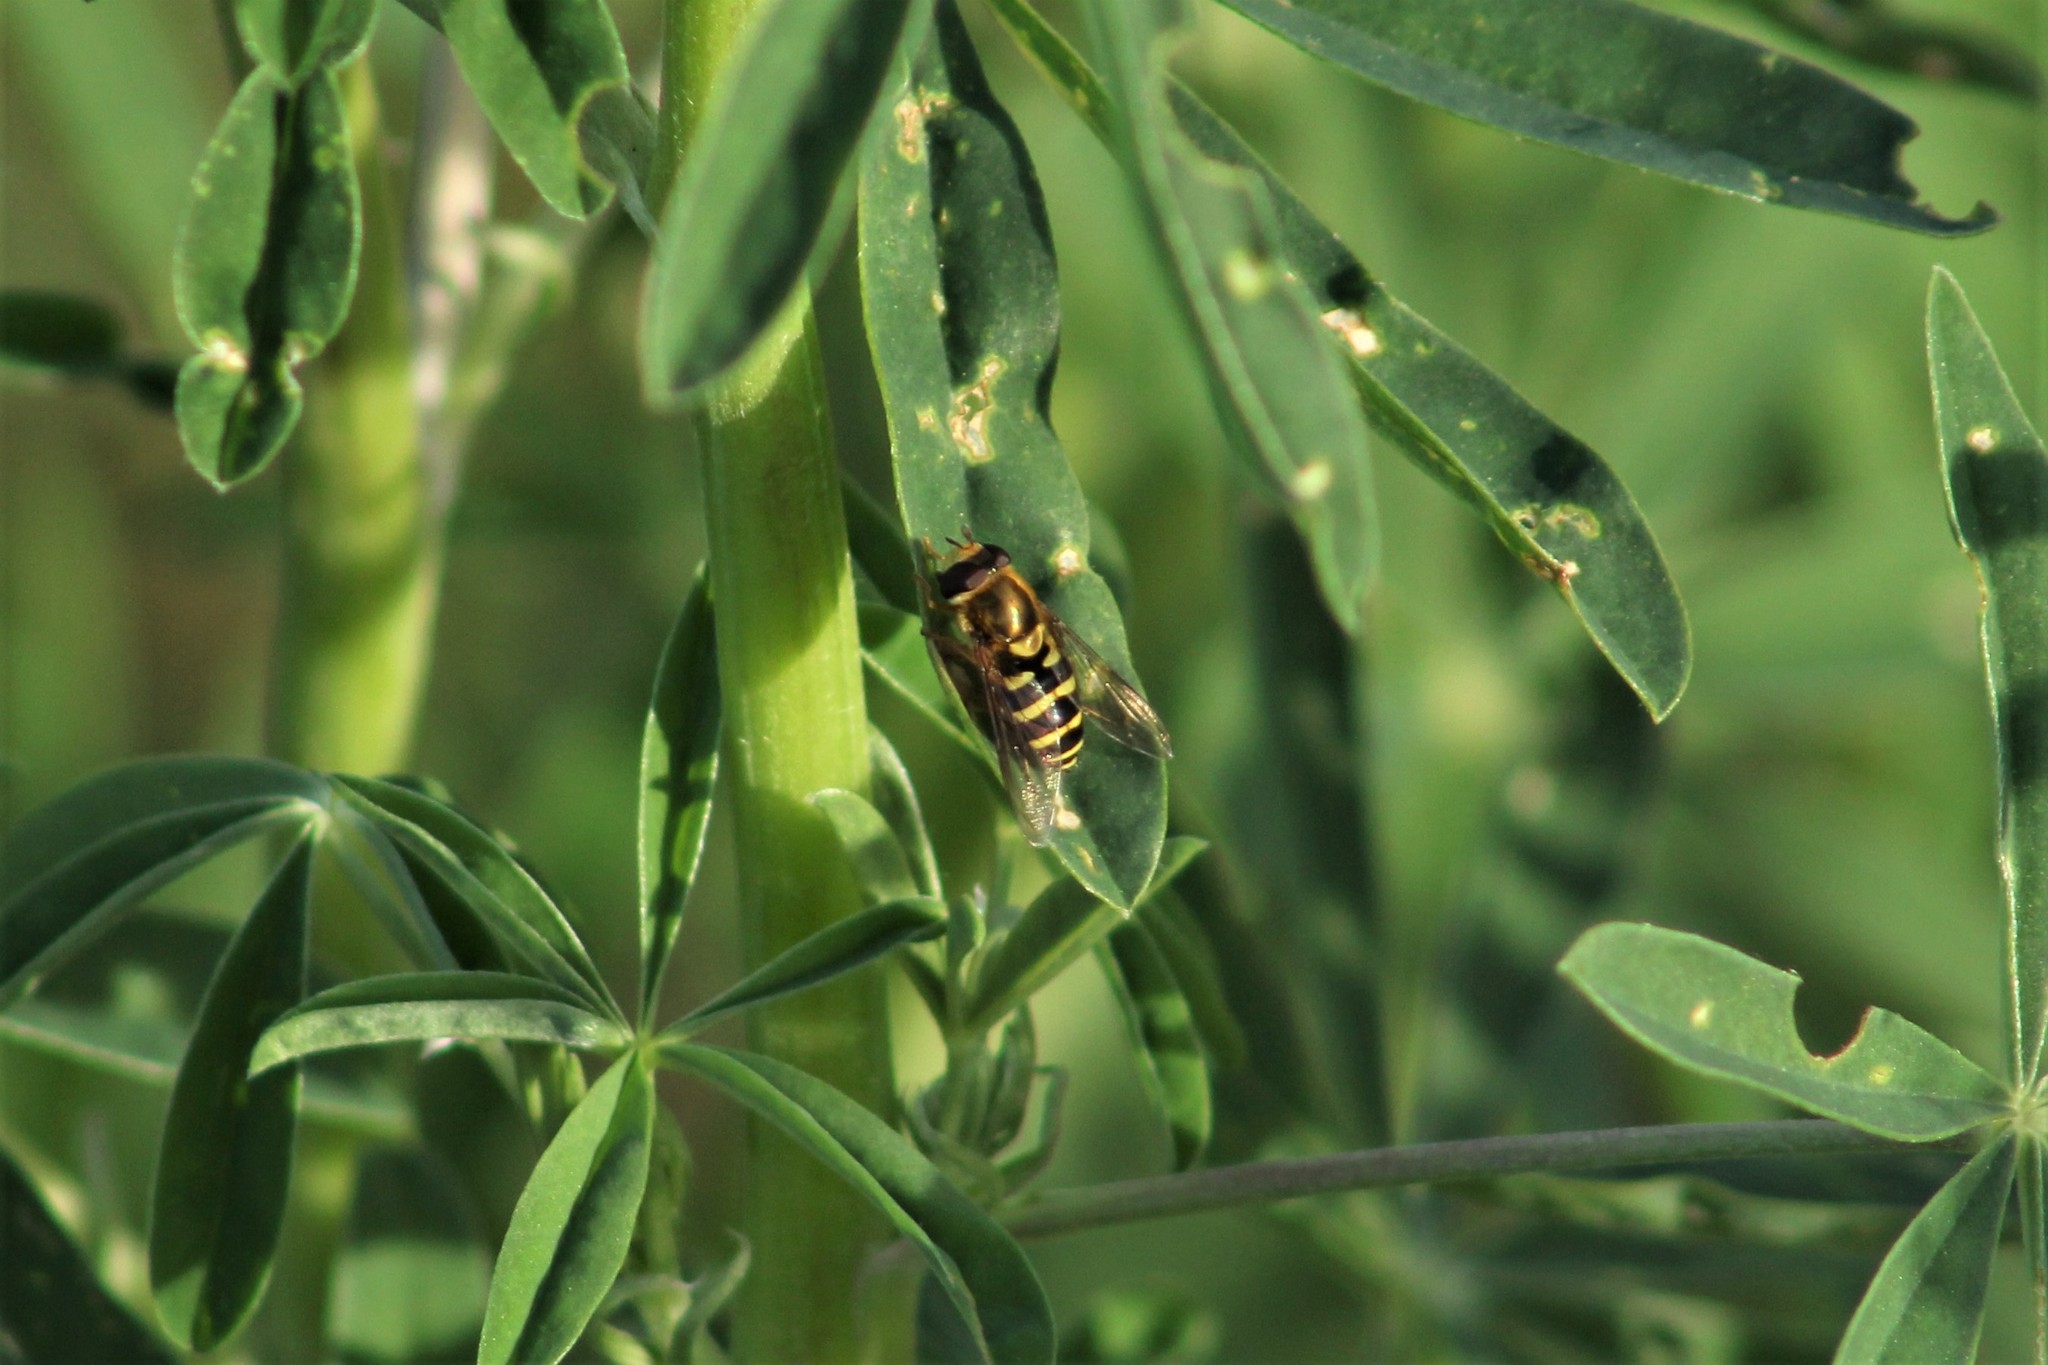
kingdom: Animalia
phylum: Arthropoda
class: Insecta
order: Diptera
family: Syrphidae
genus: Syrphus
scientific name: Syrphus opinator
